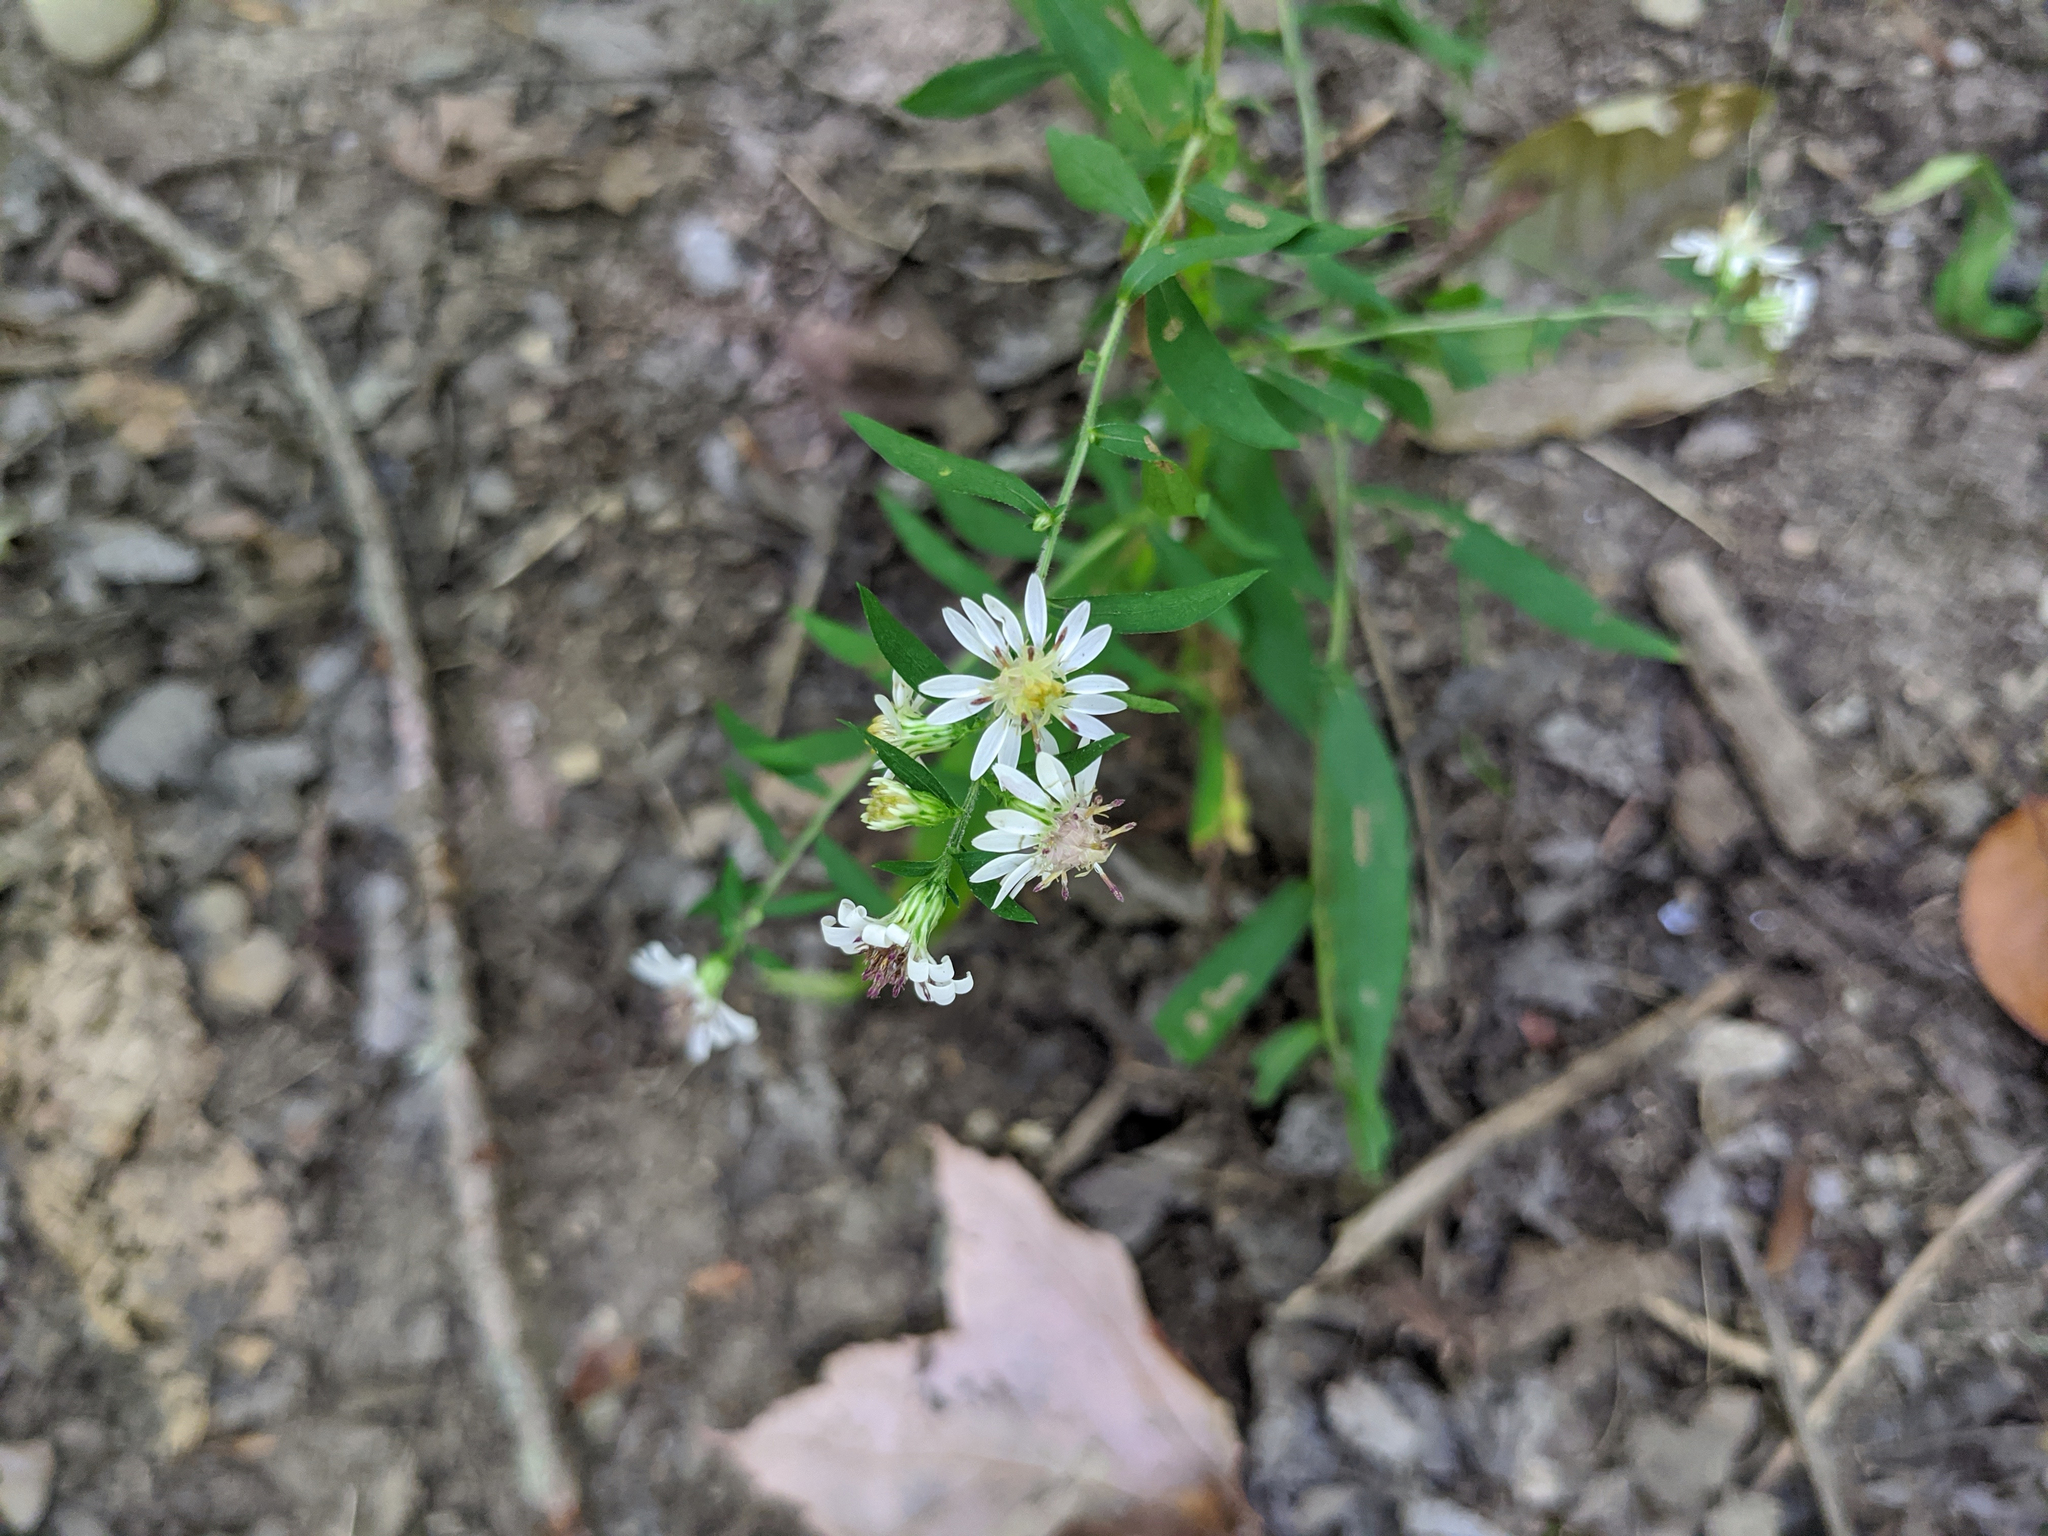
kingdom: Plantae
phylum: Tracheophyta
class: Magnoliopsida
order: Asterales
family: Asteraceae
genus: Symphyotrichum
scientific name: Symphyotrichum lateriflorum
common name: Calico aster
